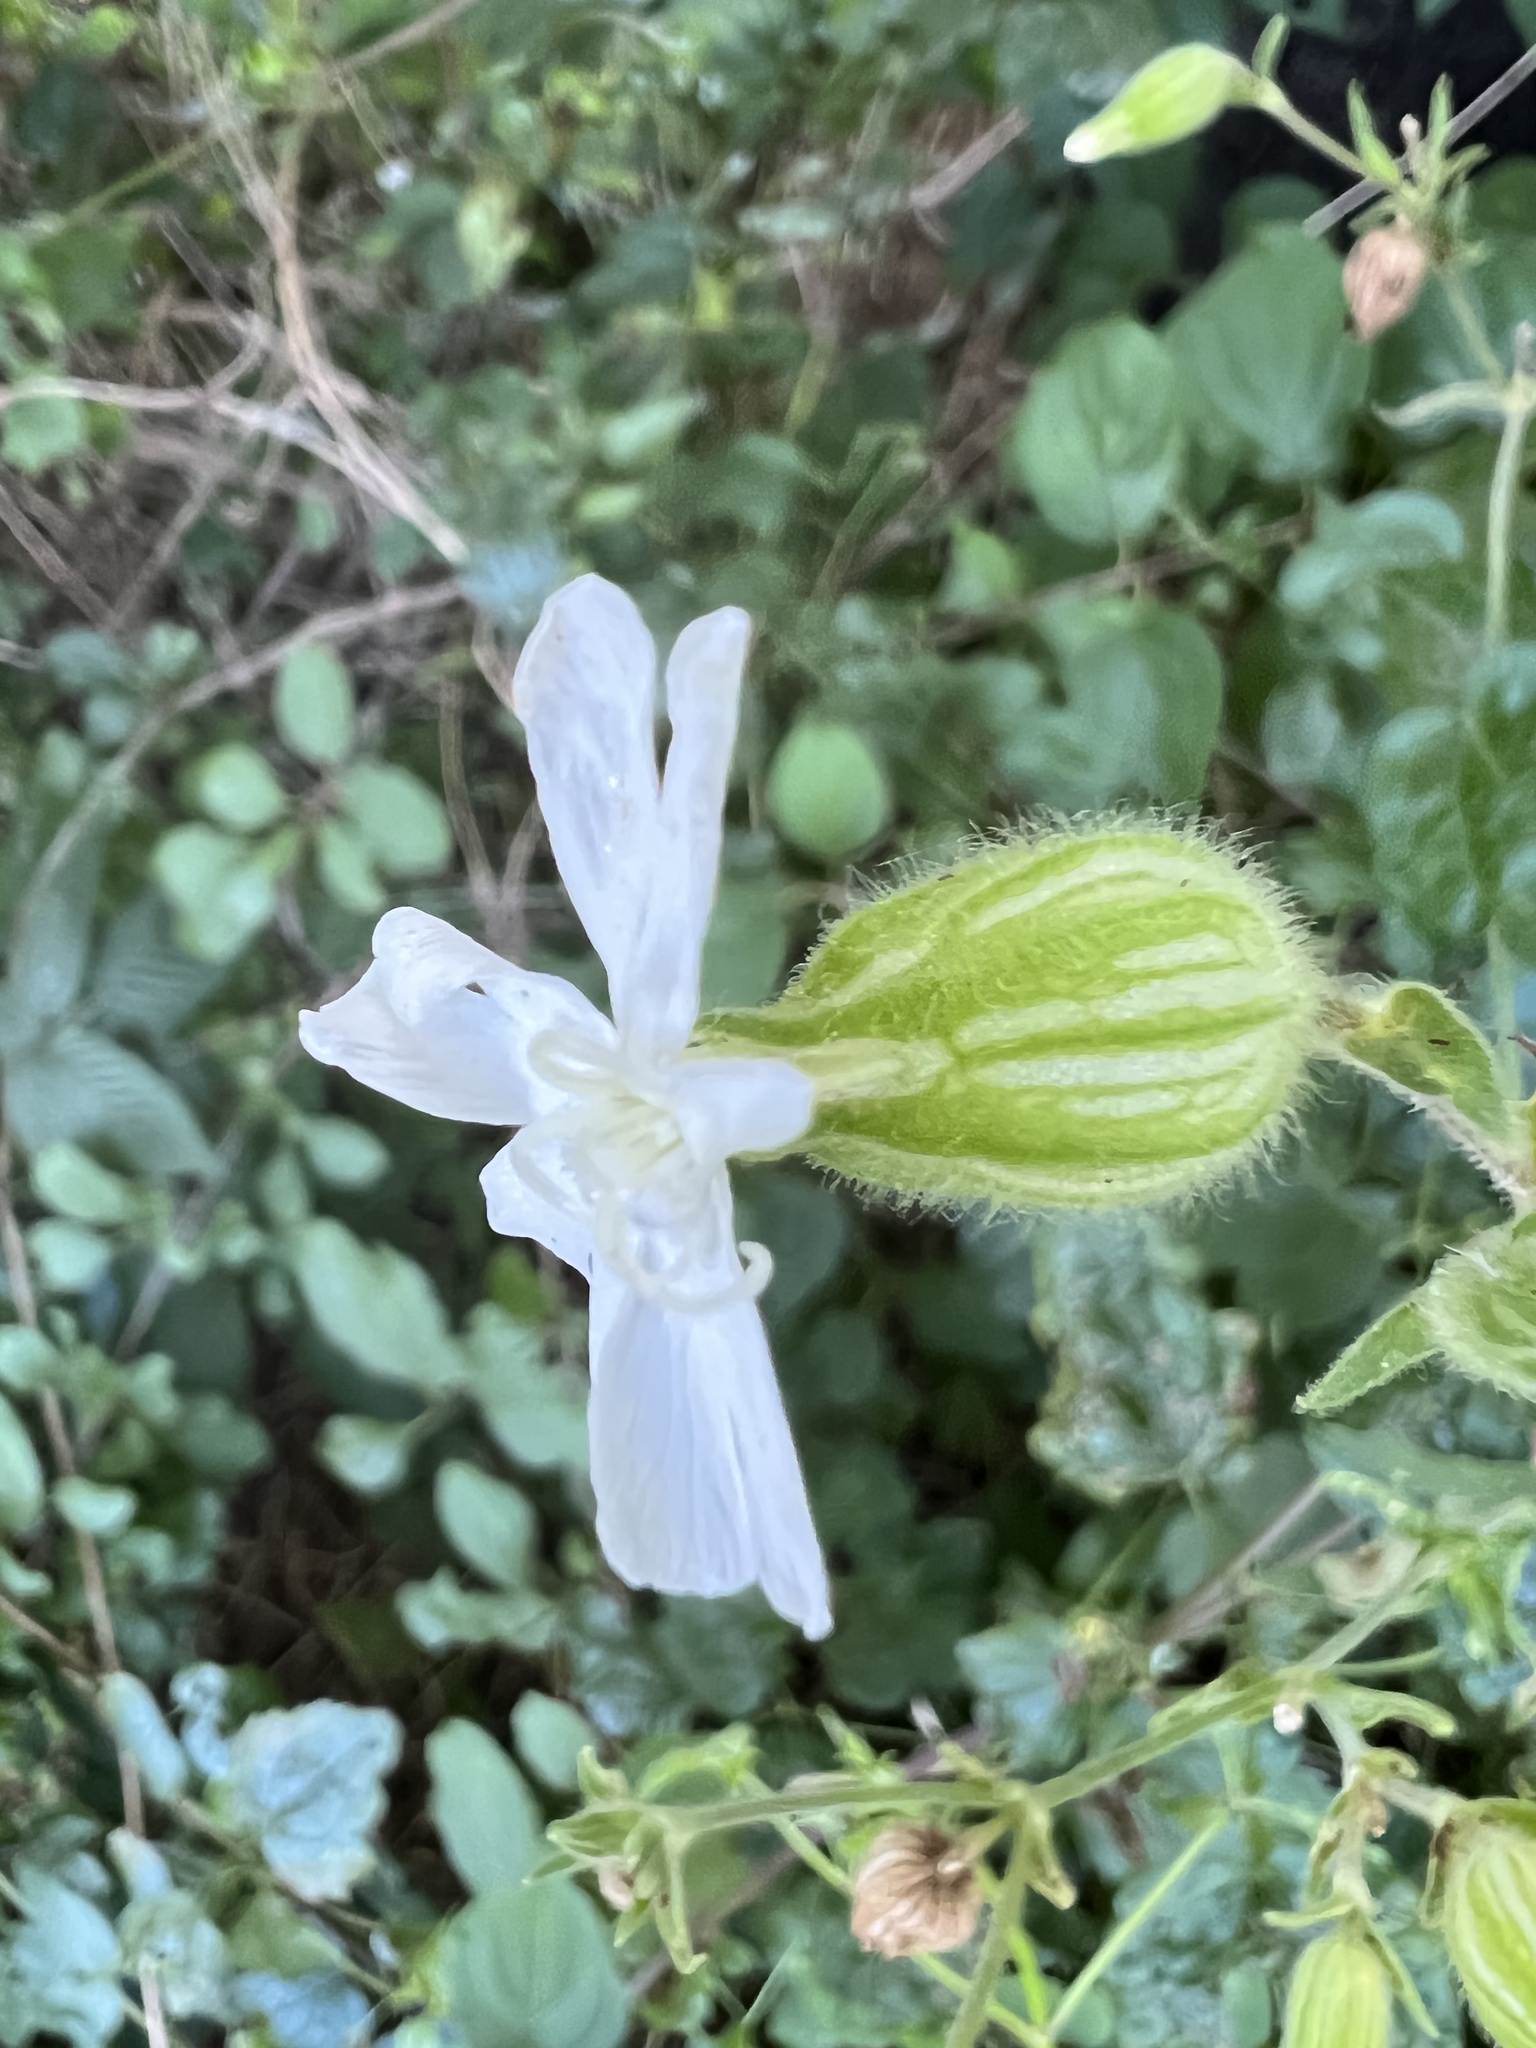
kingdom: Plantae
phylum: Tracheophyta
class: Magnoliopsida
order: Caryophyllales
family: Caryophyllaceae
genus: Silene
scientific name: Silene latifolia
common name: White campion
